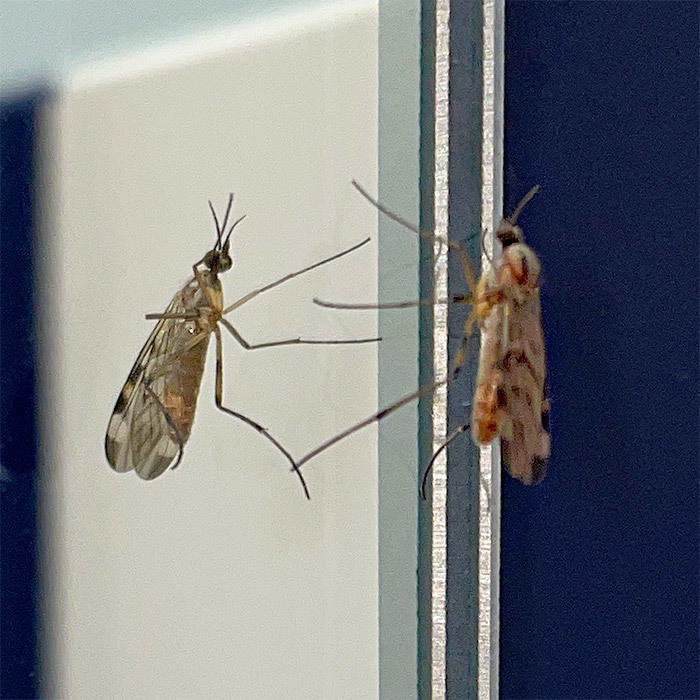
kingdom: Animalia
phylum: Arthropoda
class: Insecta
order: Diptera
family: Anisopodidae
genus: Sylvicola
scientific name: Sylvicola fenestralis
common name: Window gnat
